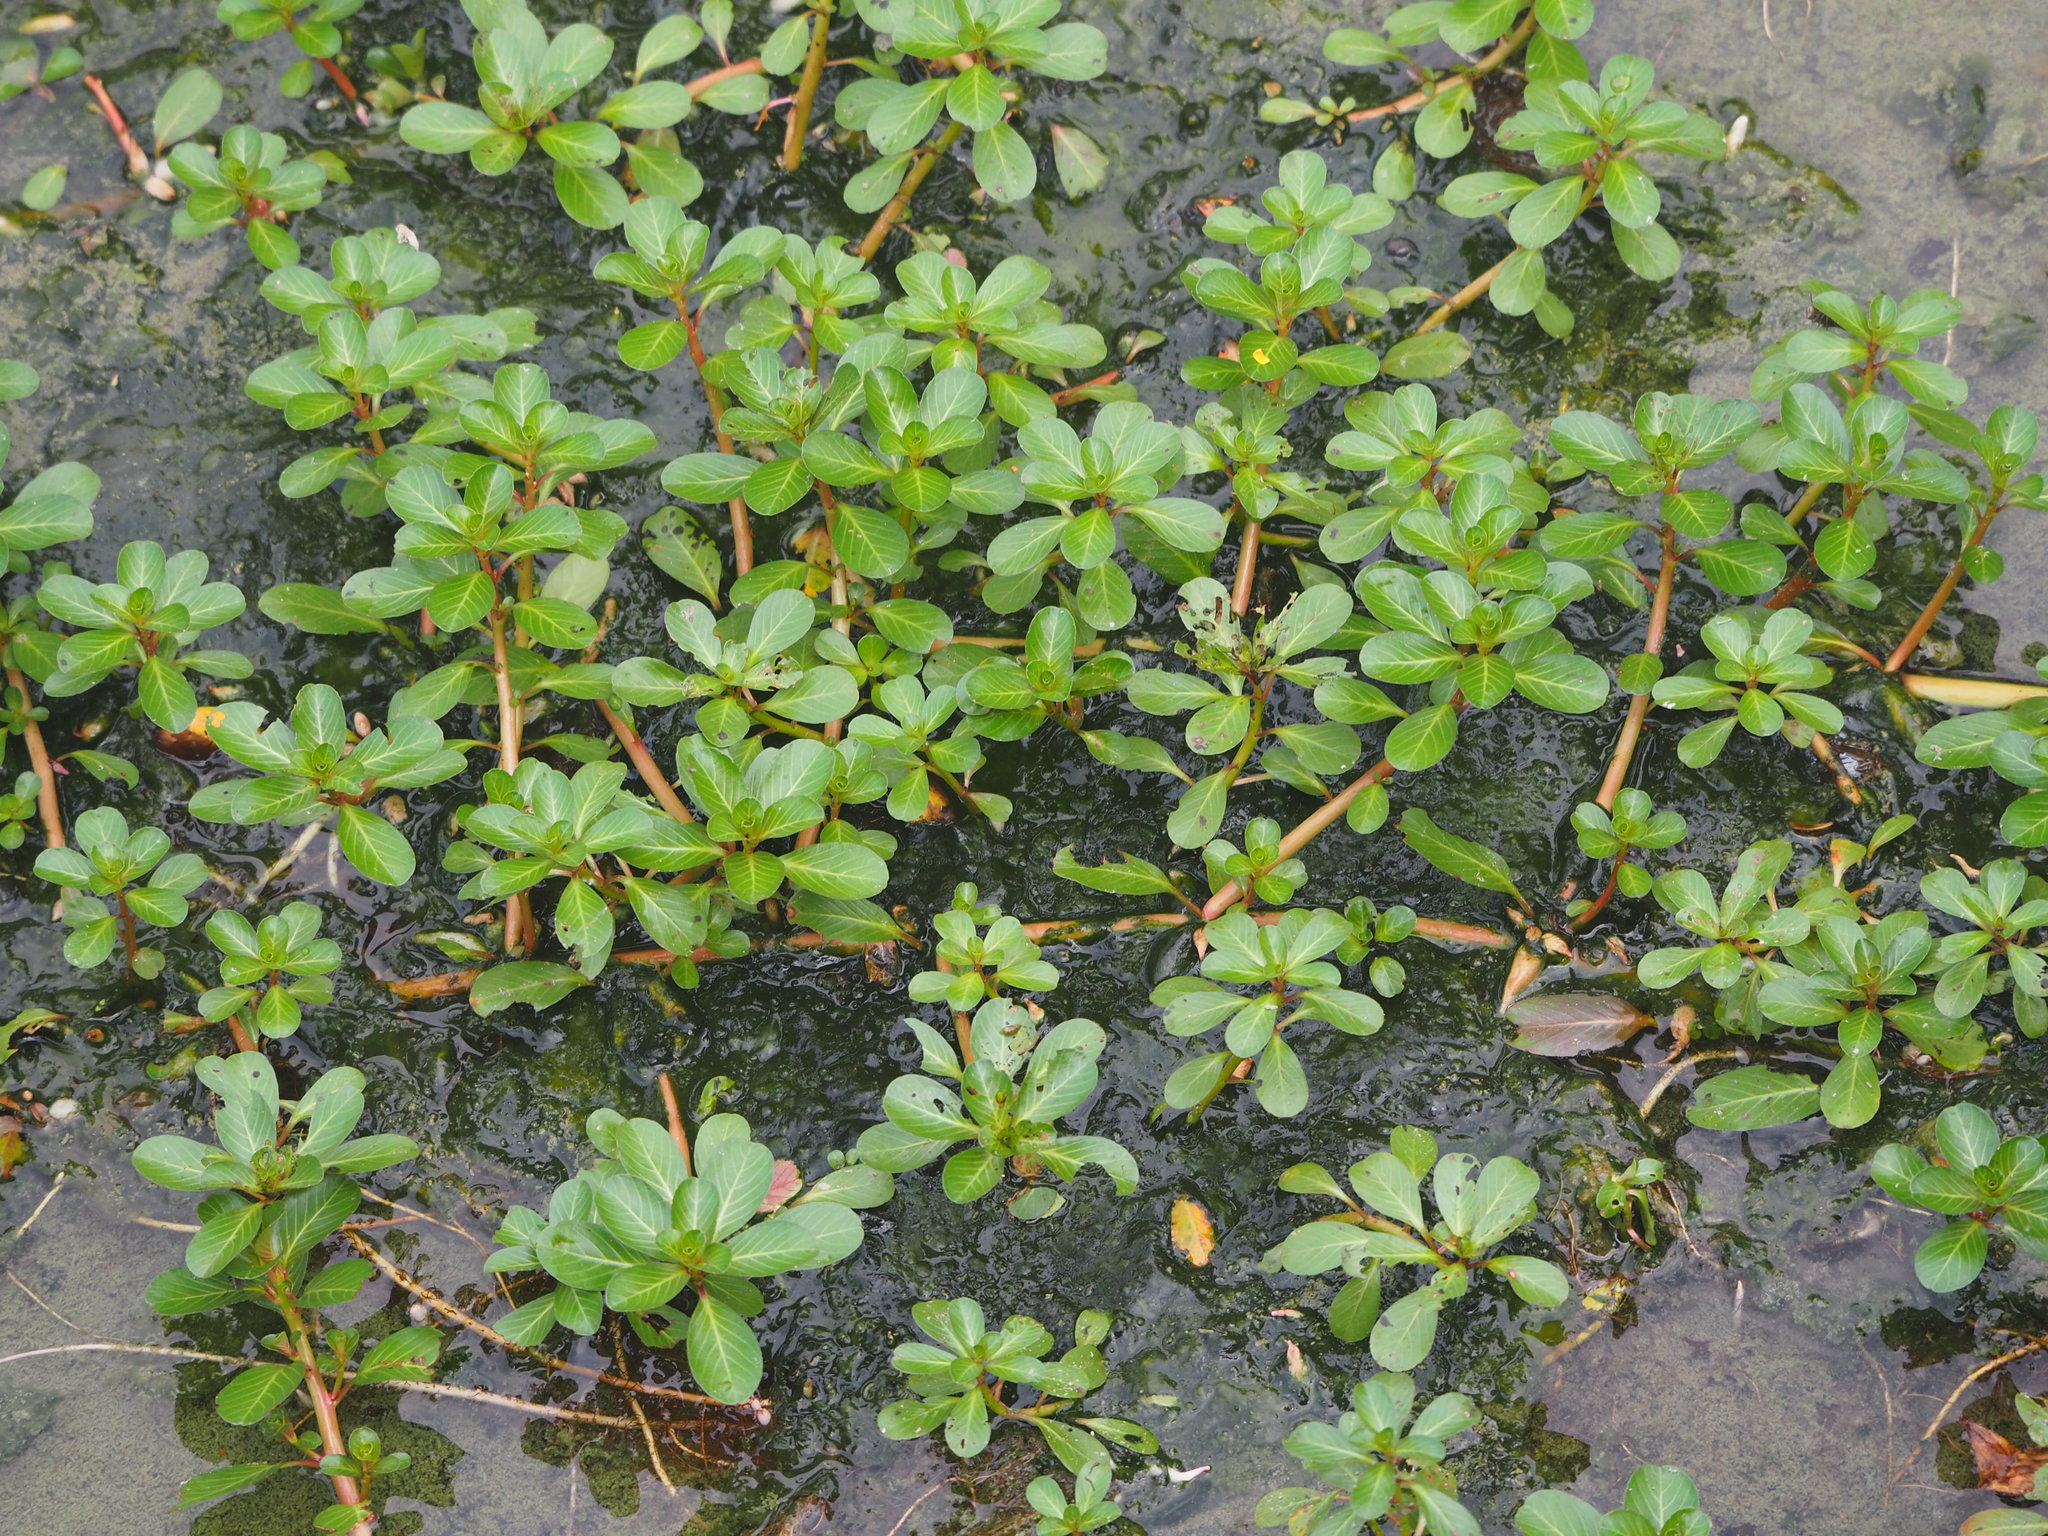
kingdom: Plantae
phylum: Tracheophyta
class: Magnoliopsida
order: Myrtales
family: Onagraceae
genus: Ludwigia
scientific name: Ludwigia adscendens
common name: Creeping water primrose
